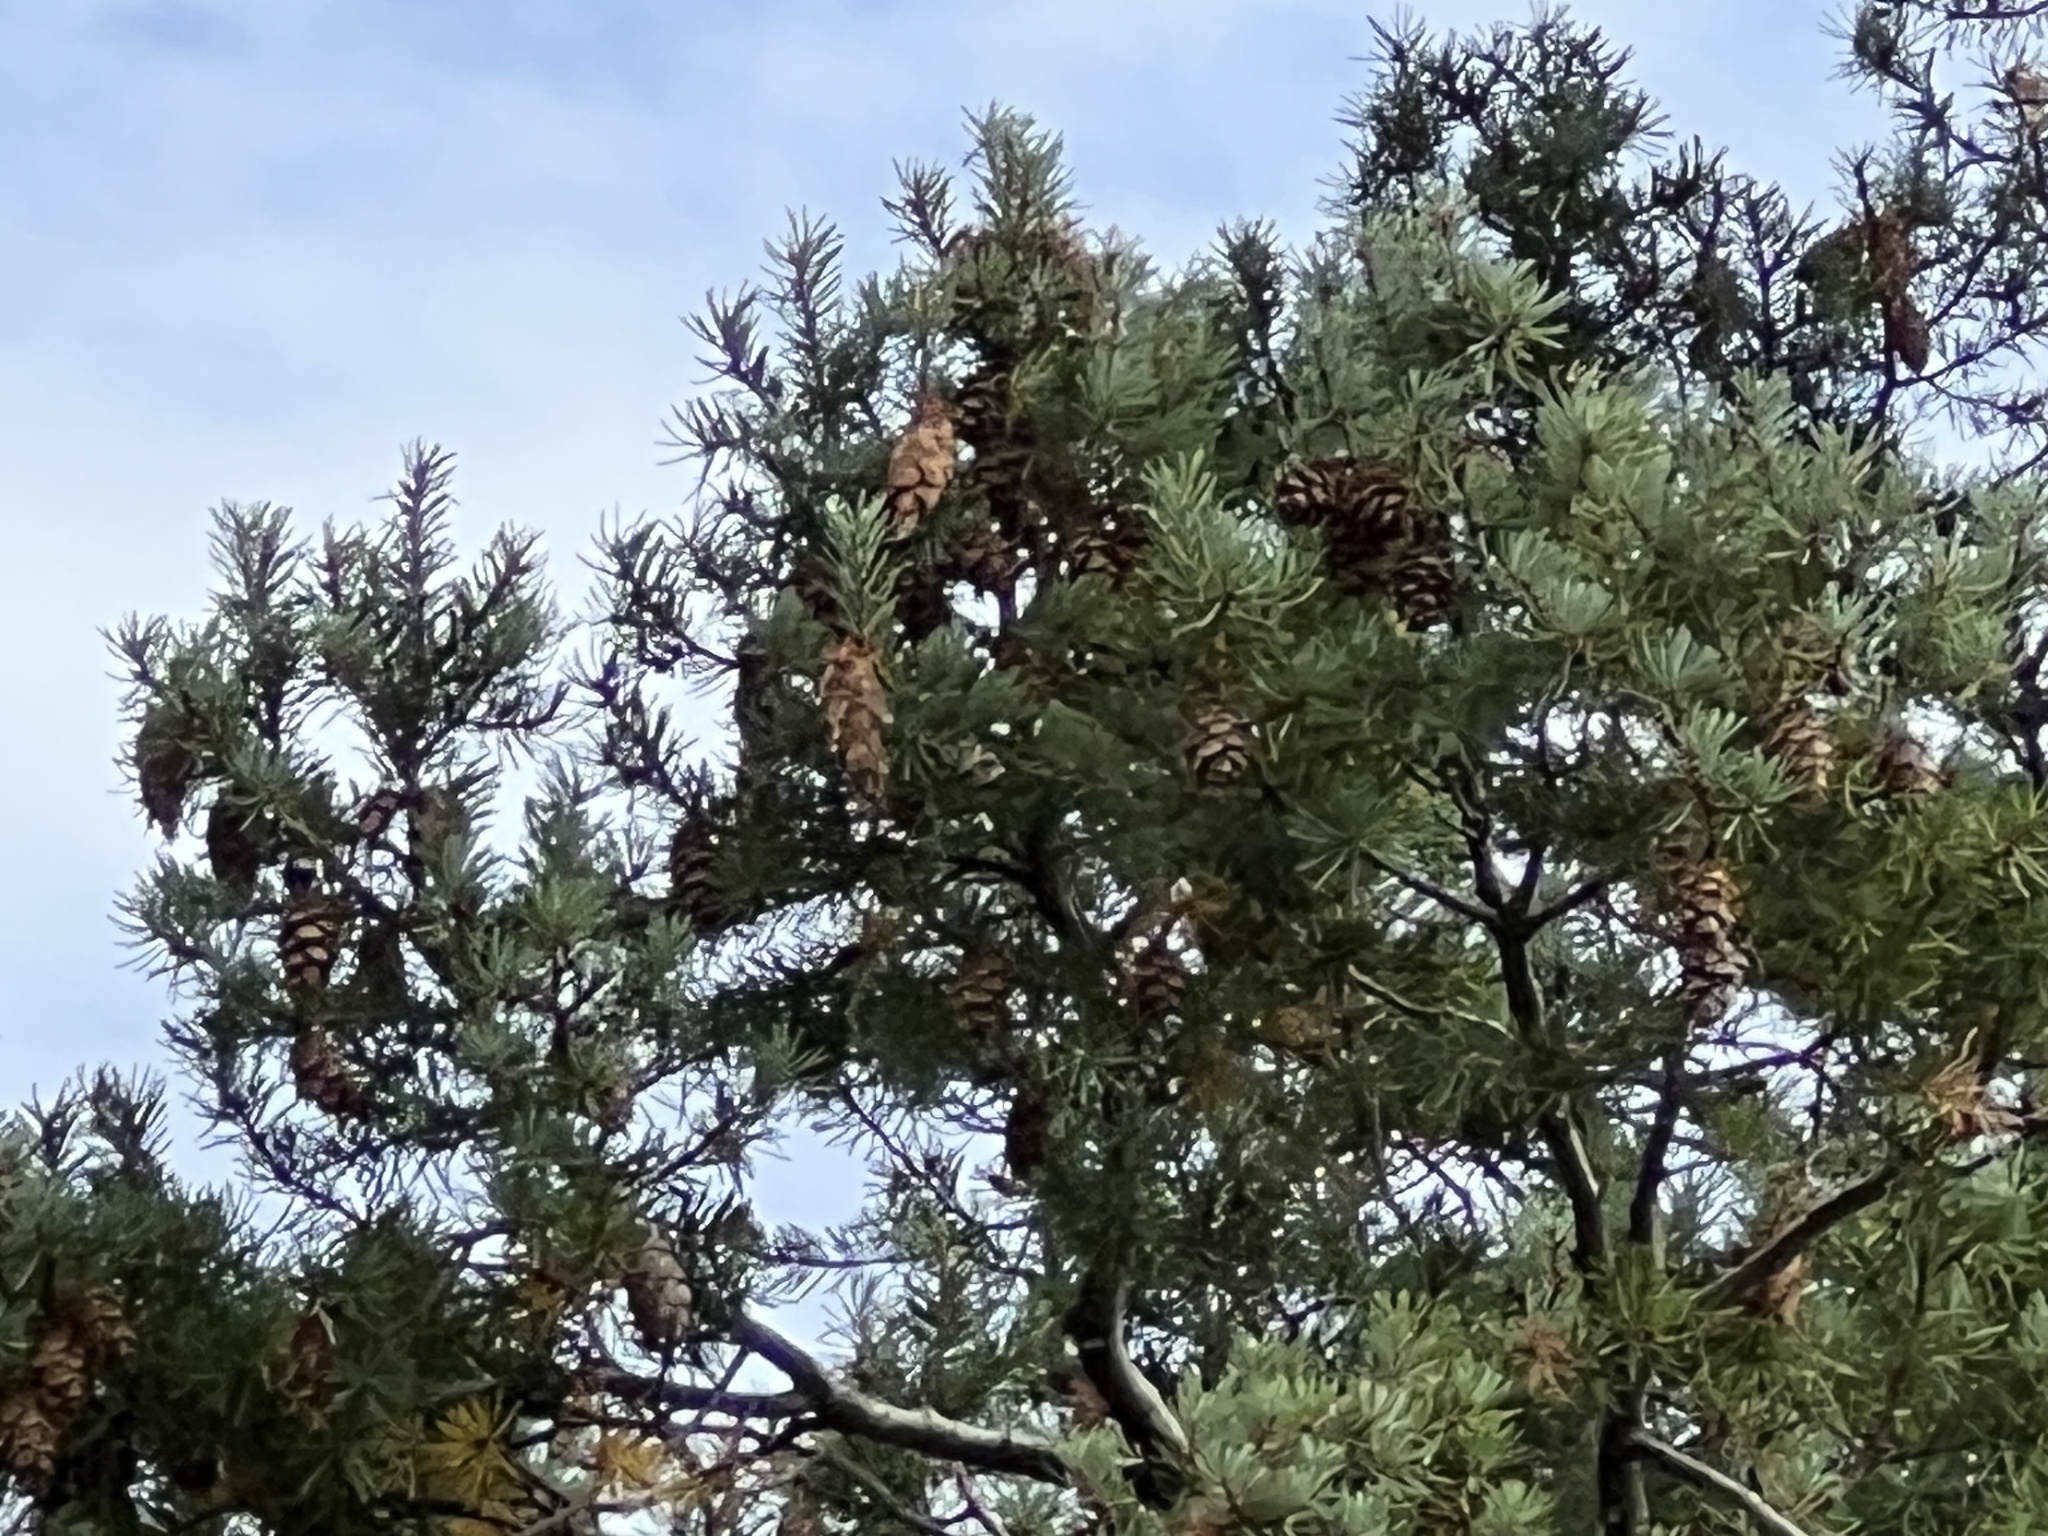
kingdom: Plantae
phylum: Tracheophyta
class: Pinopsida
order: Pinales
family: Pinaceae
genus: Pseudotsuga
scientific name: Pseudotsuga menziesii
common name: Douglas fir
